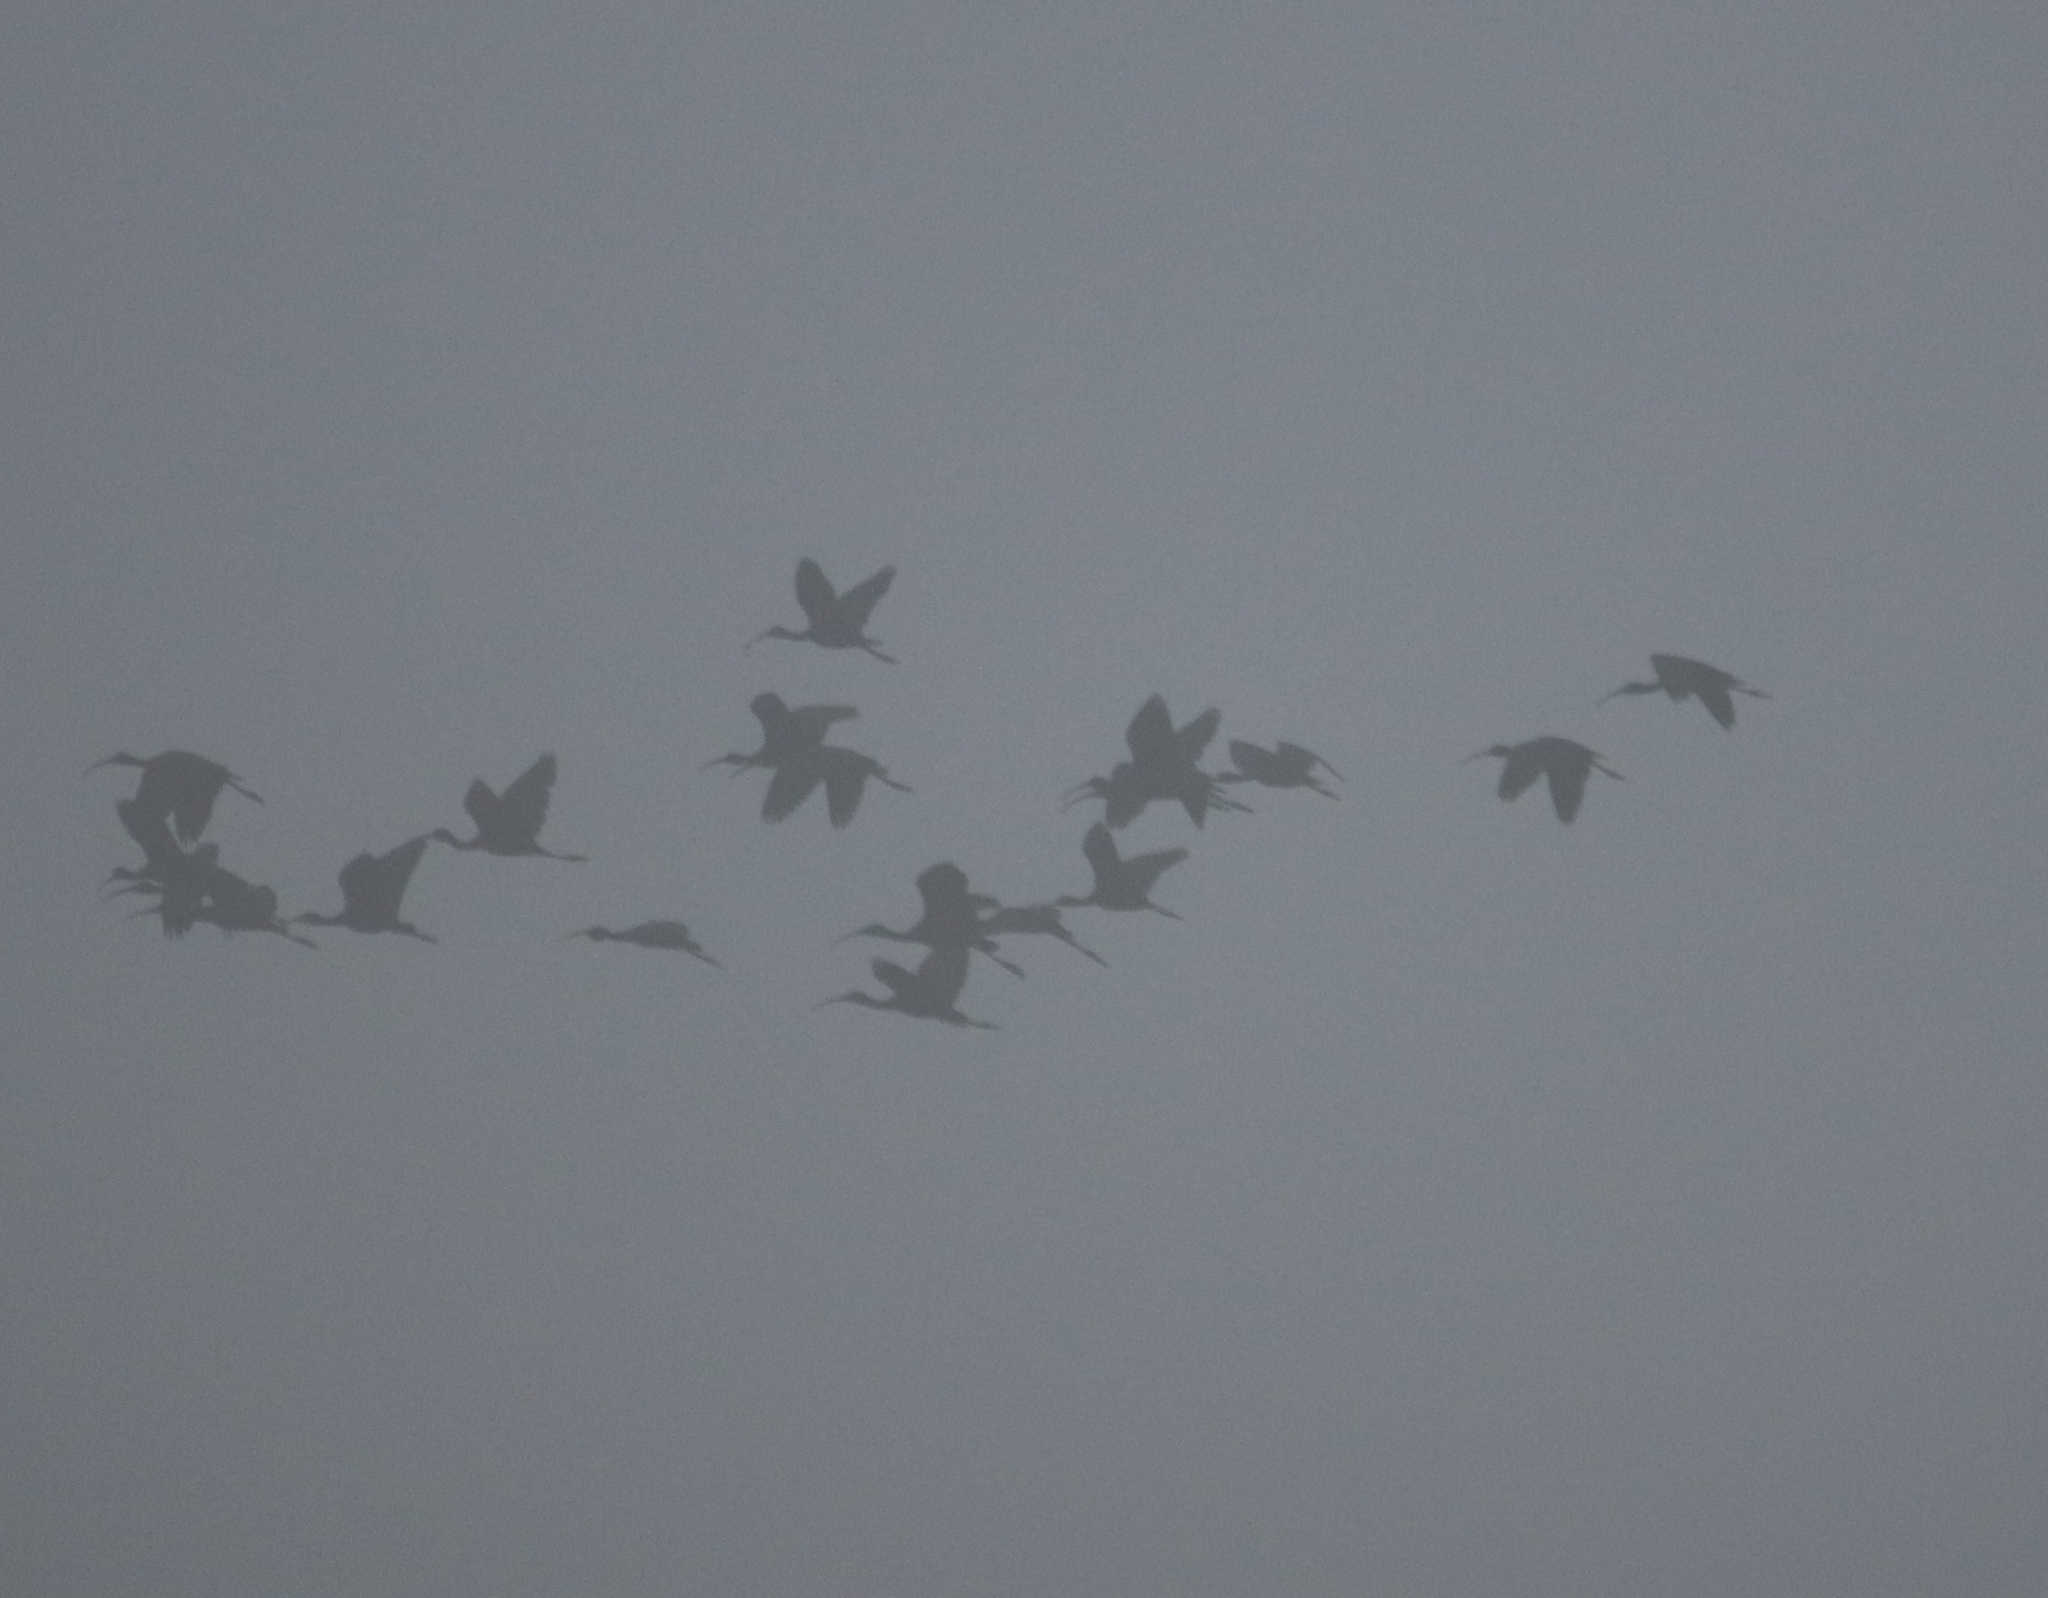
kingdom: Animalia
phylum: Chordata
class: Aves
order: Pelecaniformes
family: Threskiornithidae
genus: Plegadis
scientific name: Plegadis falcinellus
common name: Glossy ibis
